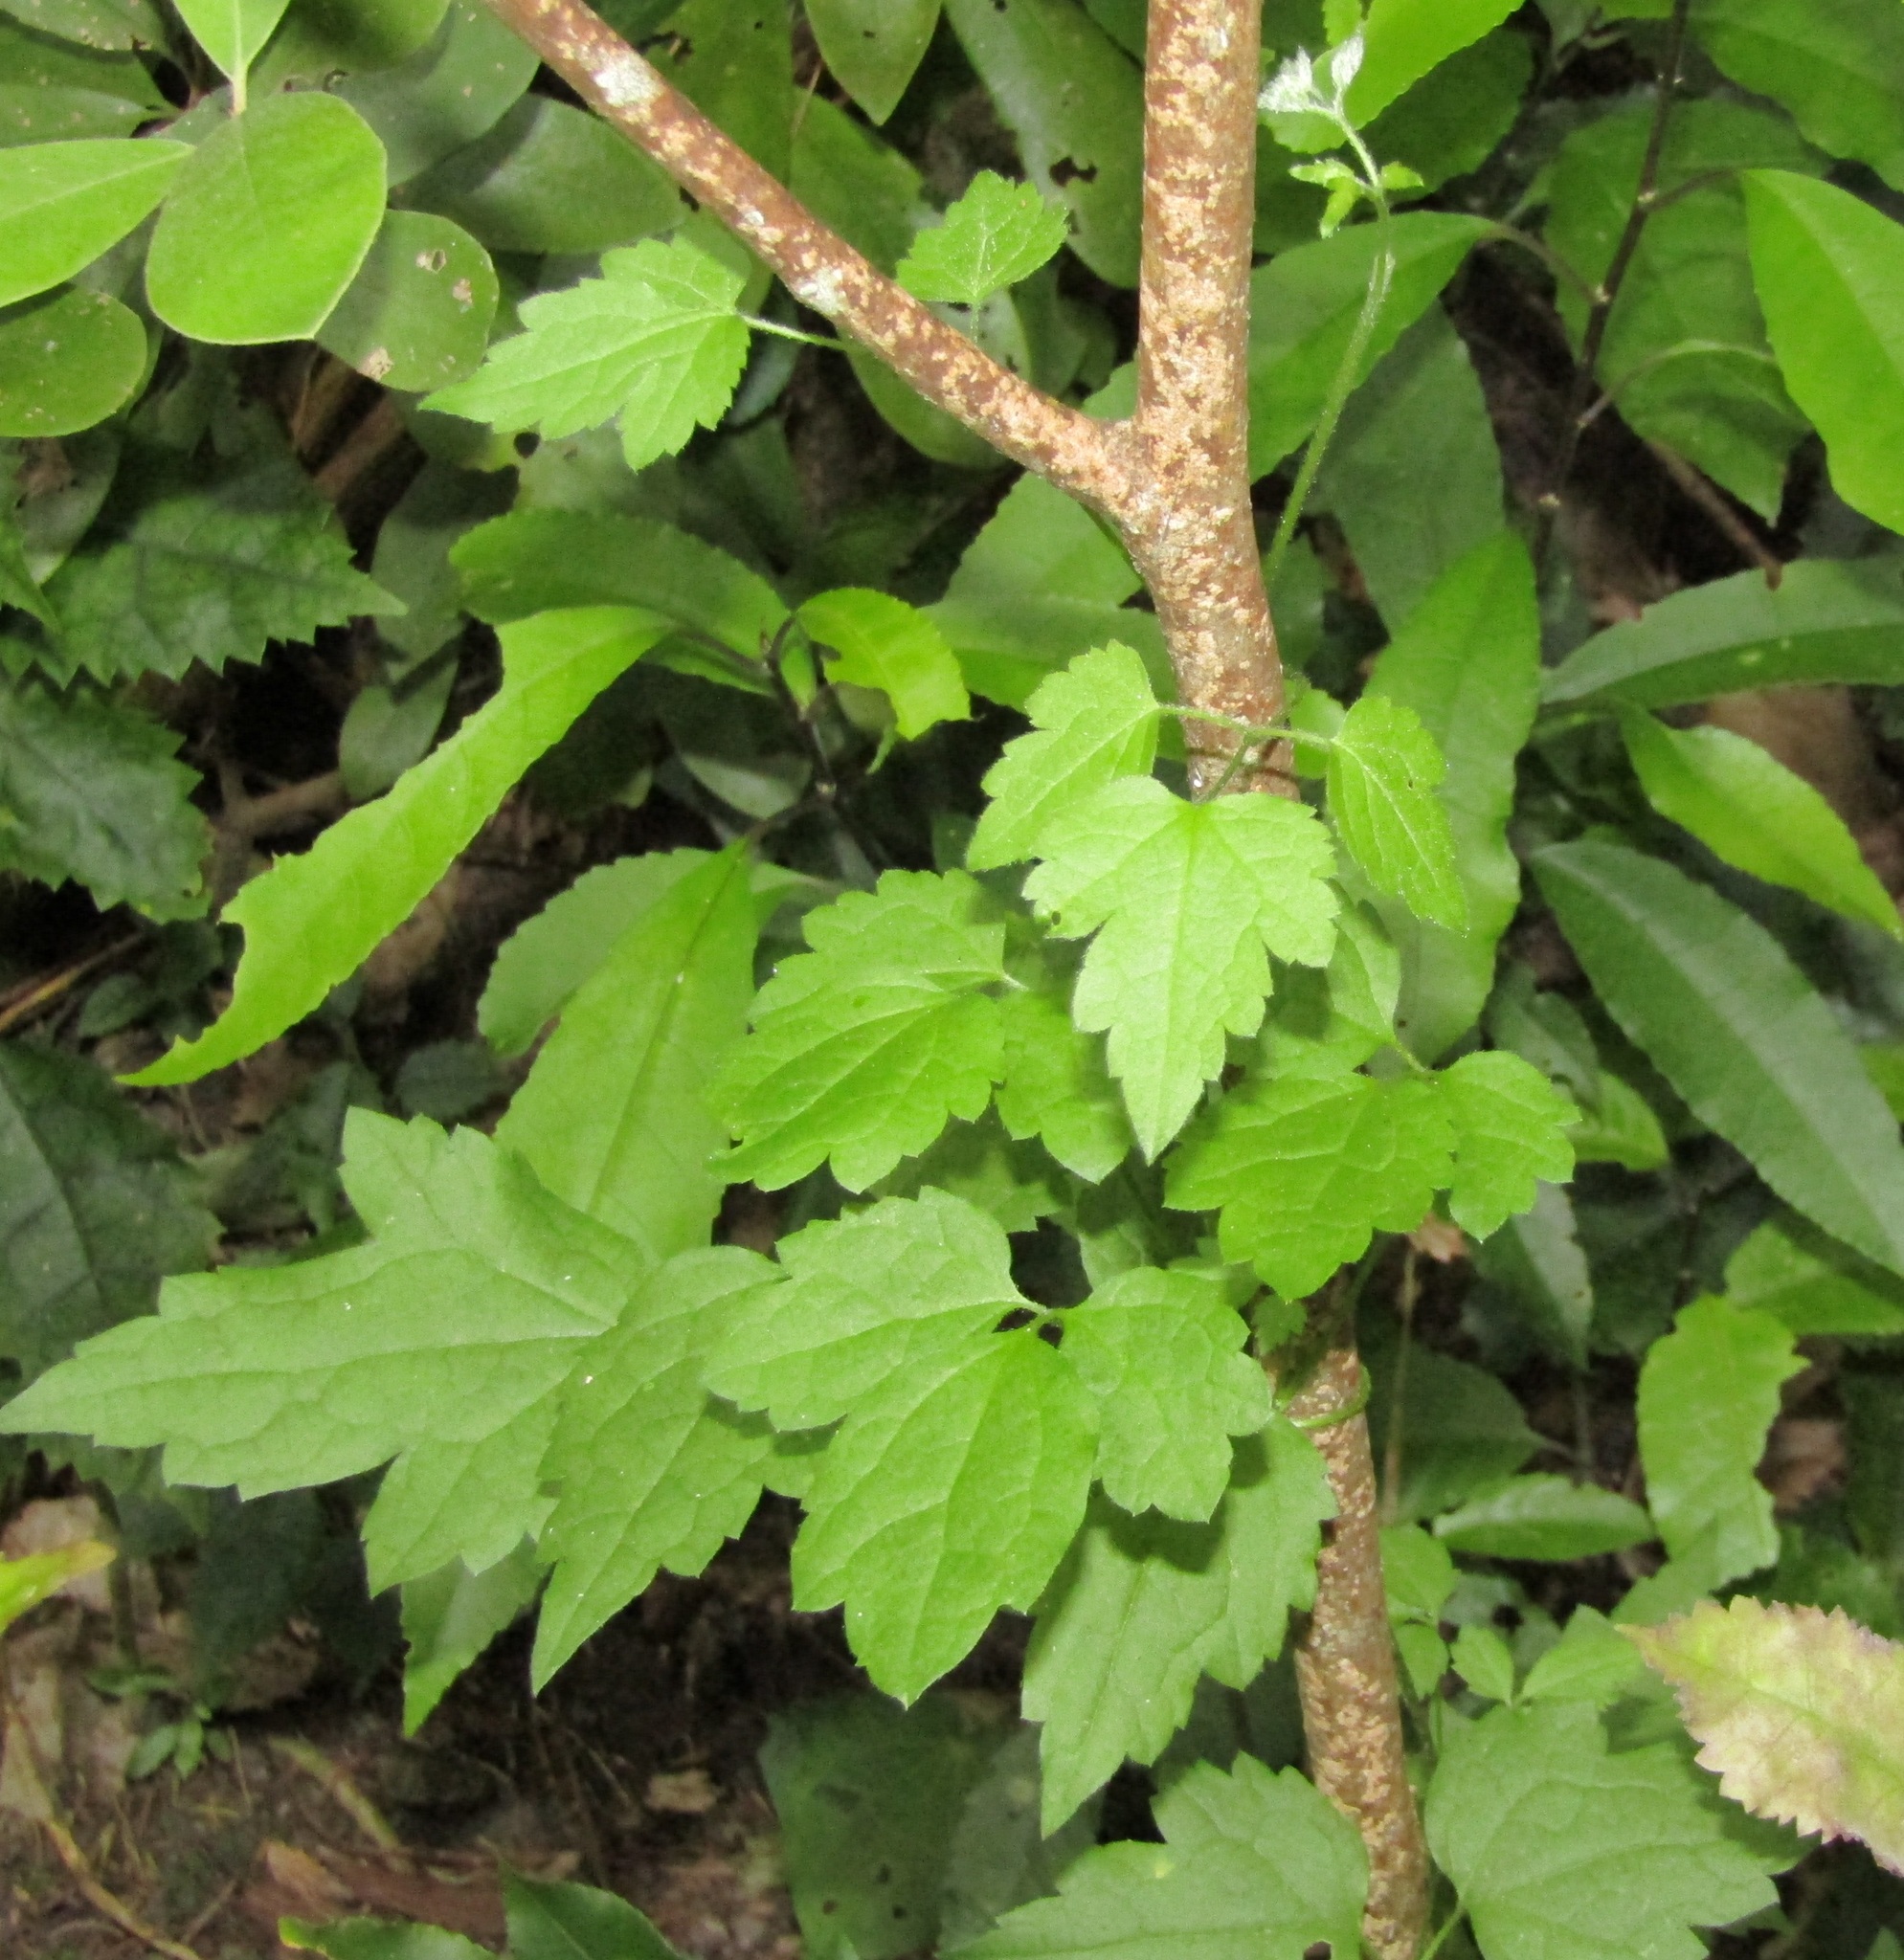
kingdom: Plantae
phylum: Tracheophyta
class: Magnoliopsida
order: Ranunculales
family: Ranunculaceae
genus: Clematis
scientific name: Clematis vitalba
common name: Evergreen clematis
